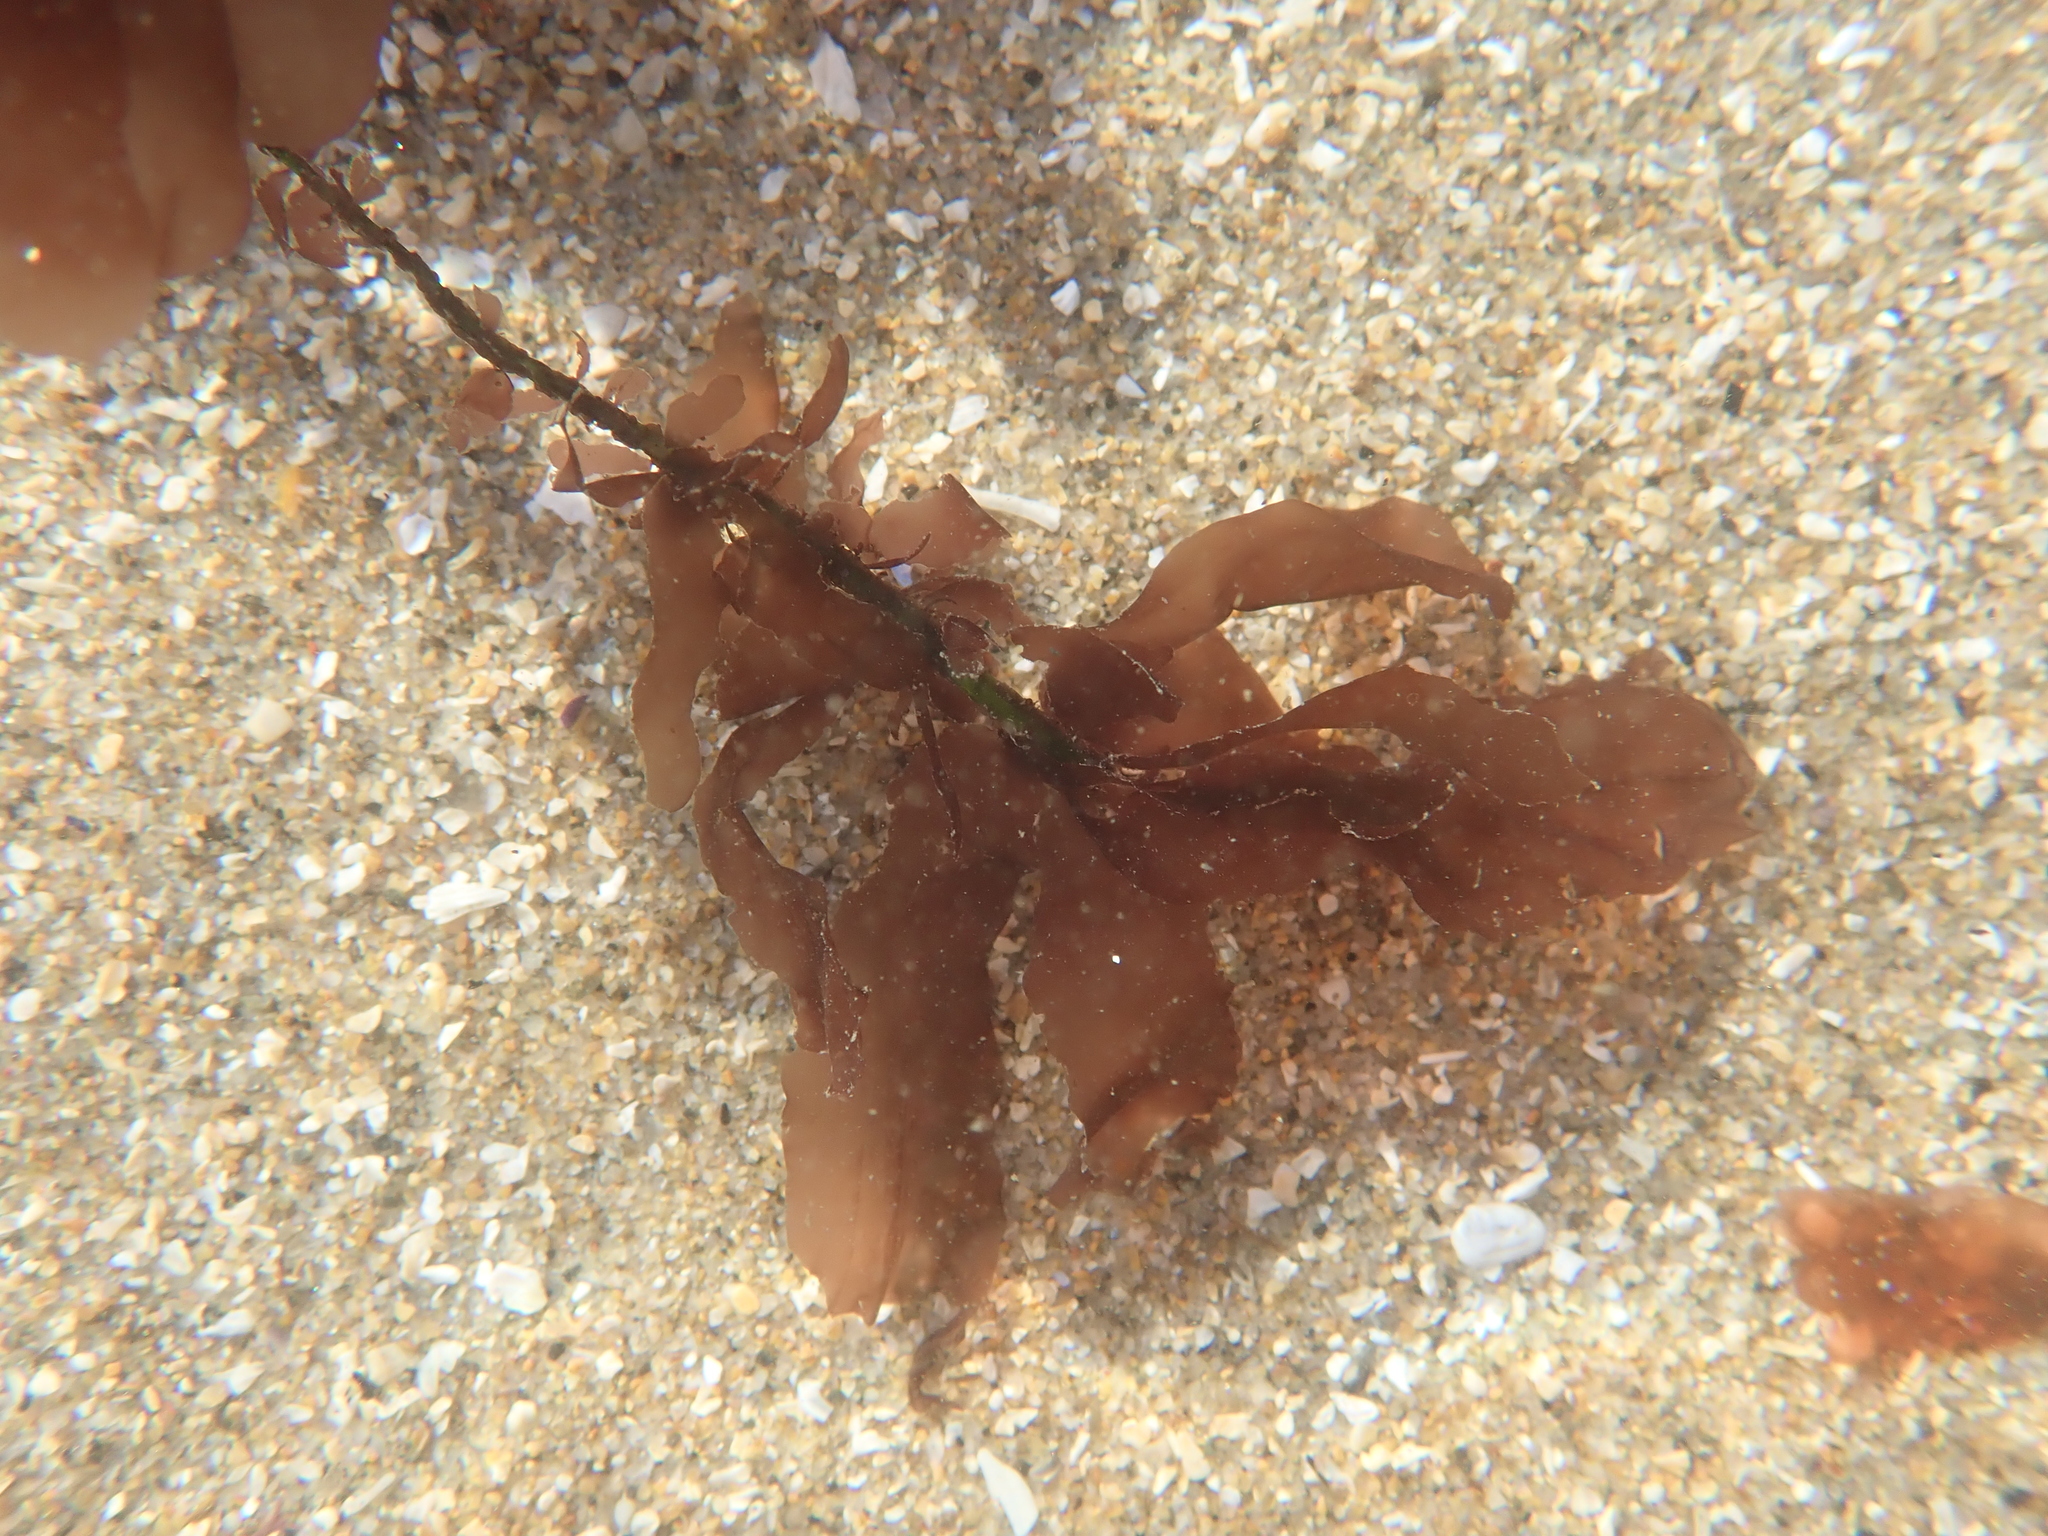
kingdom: Plantae
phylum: Rhodophyta
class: Compsopogonophyceae
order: Erythropeltidales
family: Erythrotrichiaceae
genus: Smithora
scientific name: Smithora naiadum
